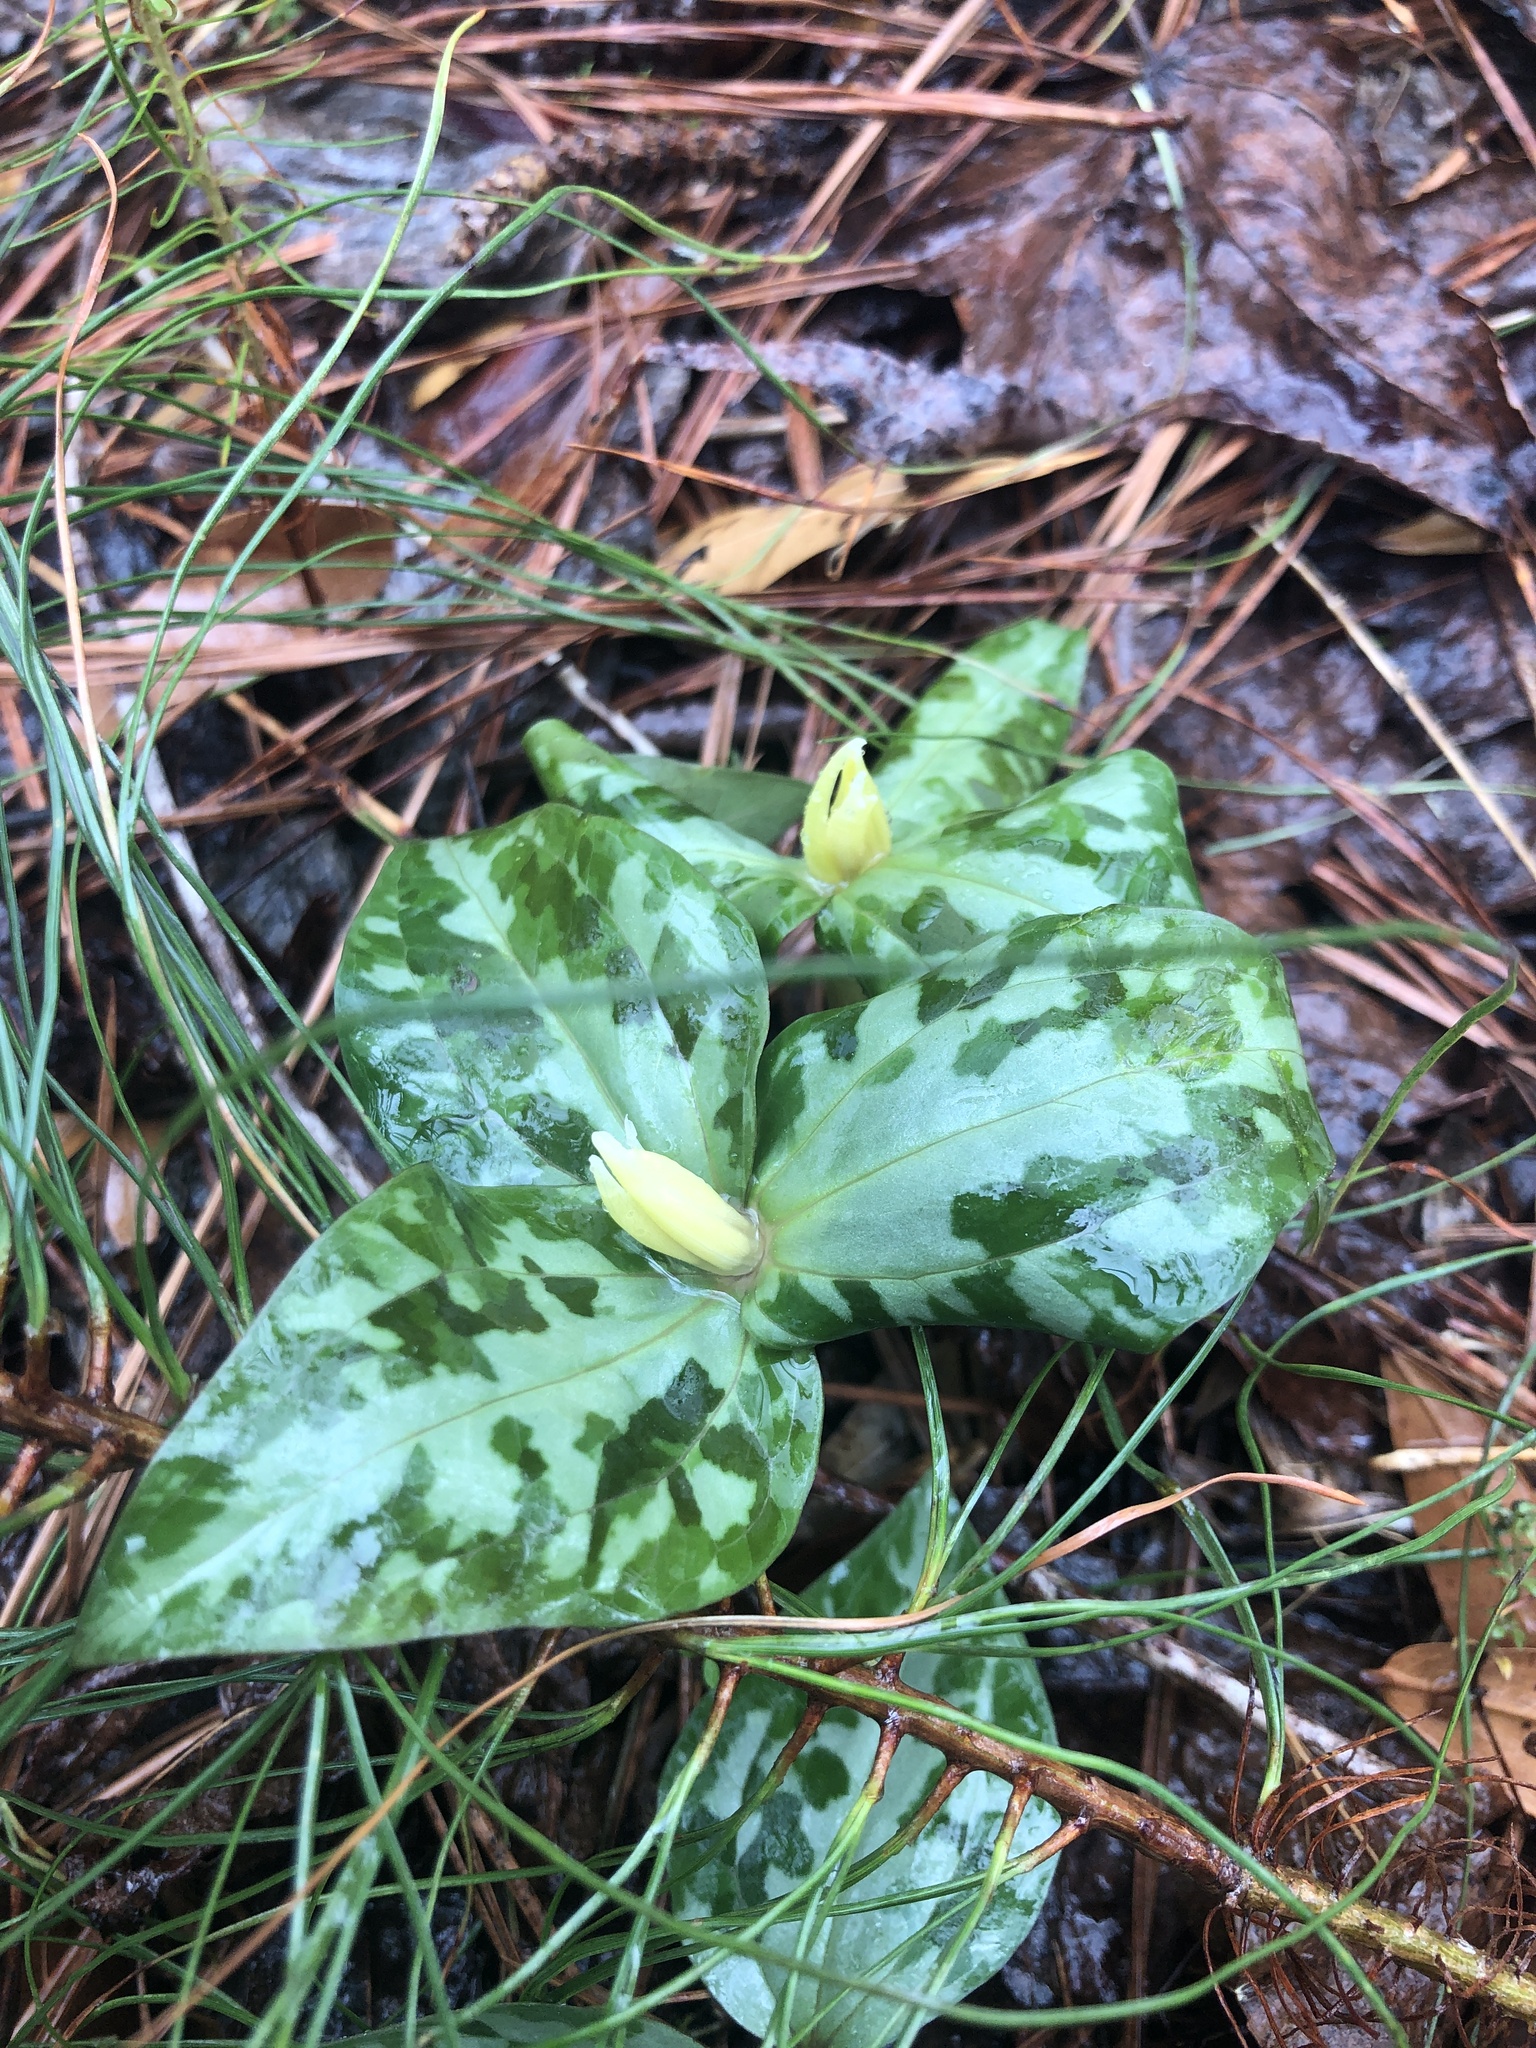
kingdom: Plantae
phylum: Tracheophyta
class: Liliopsida
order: Liliales
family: Melanthiaceae
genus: Trillium
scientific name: Trillium underwoodii
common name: Longbract wakerobin
